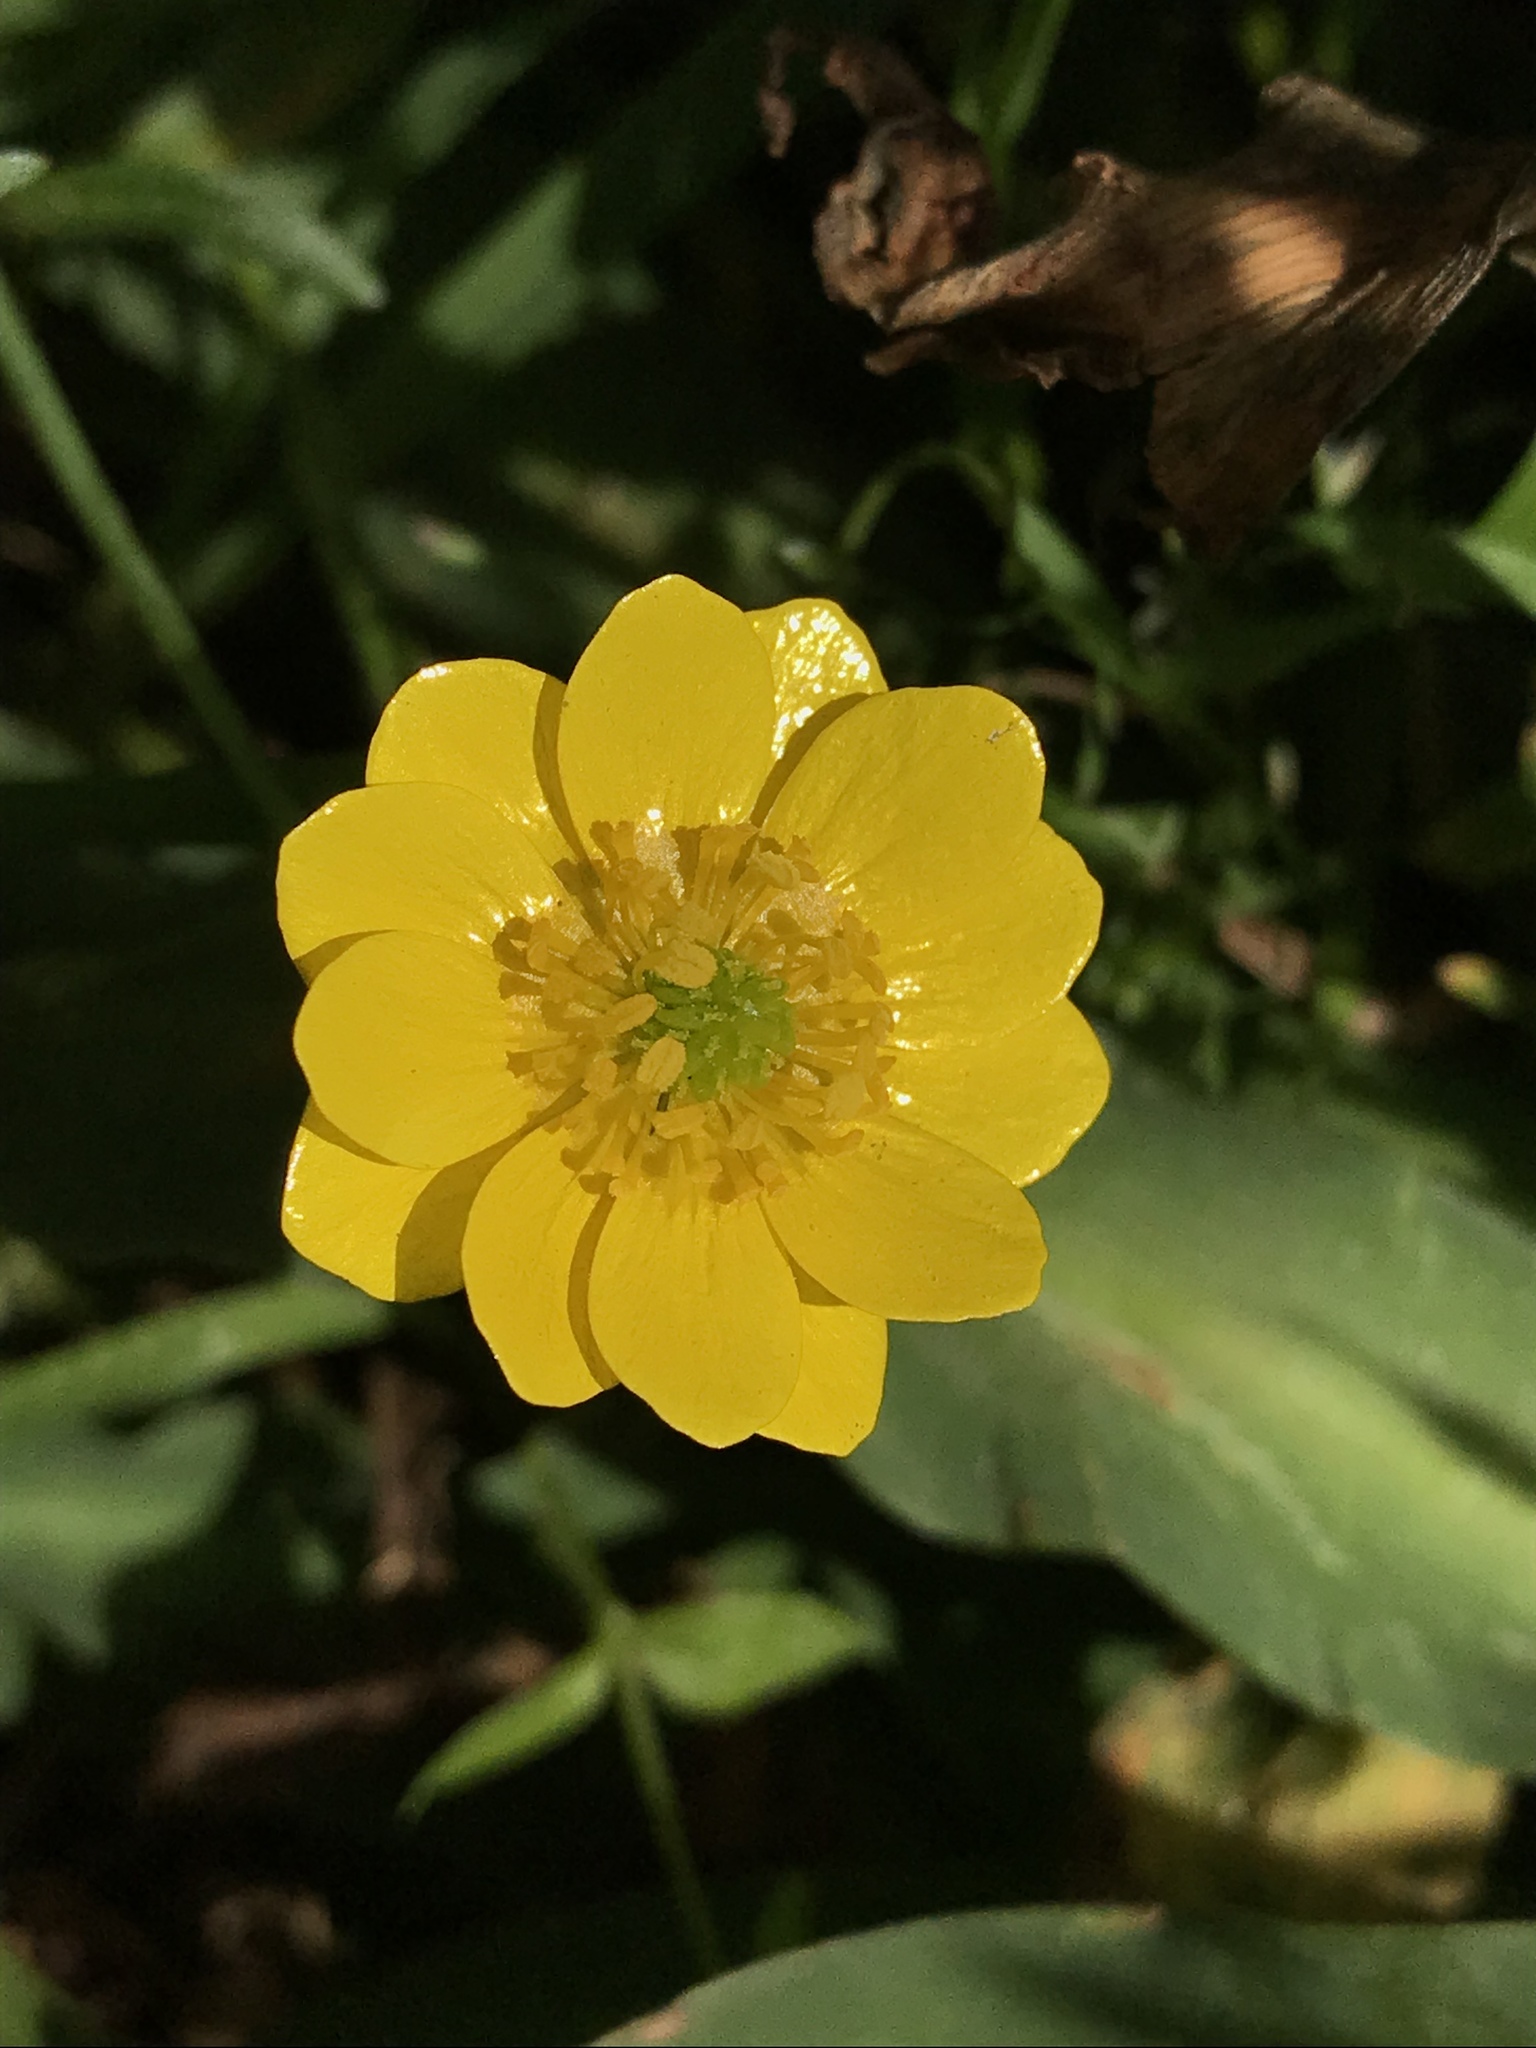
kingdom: Plantae
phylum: Tracheophyta
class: Magnoliopsida
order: Ranunculales
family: Ranunculaceae
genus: Ranunculus
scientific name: Ranunculus californicus
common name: California buttercup
